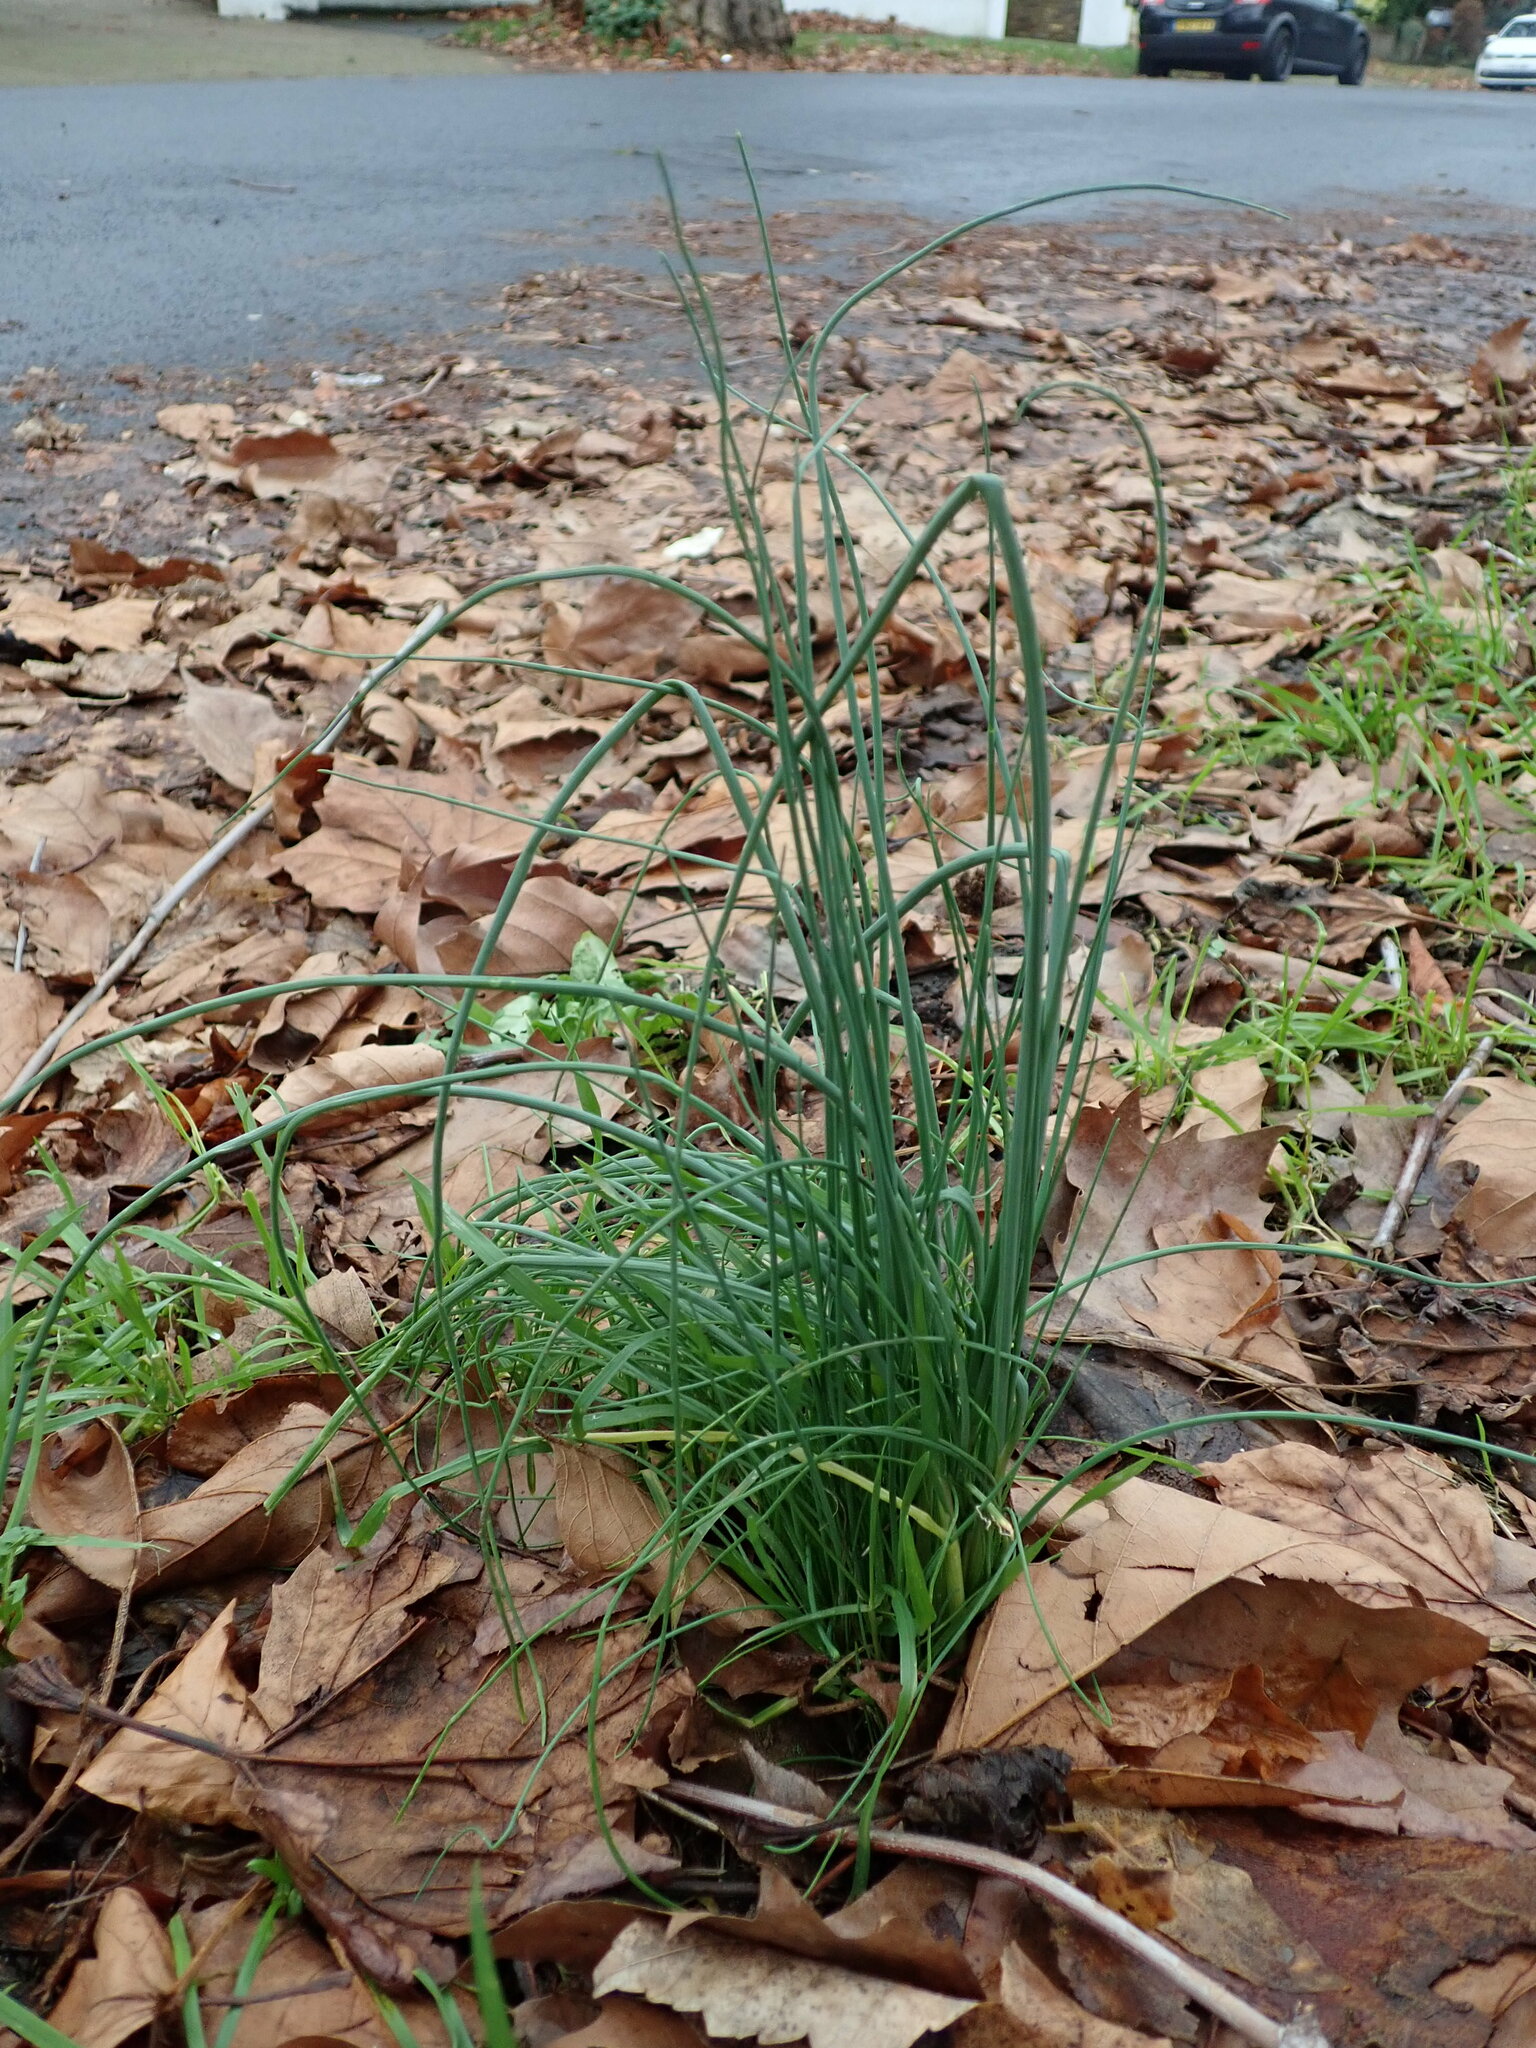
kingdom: Plantae
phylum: Tracheophyta
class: Liliopsida
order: Asparagales
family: Amaryllidaceae
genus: Allium
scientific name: Allium vineale
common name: Crow garlic
